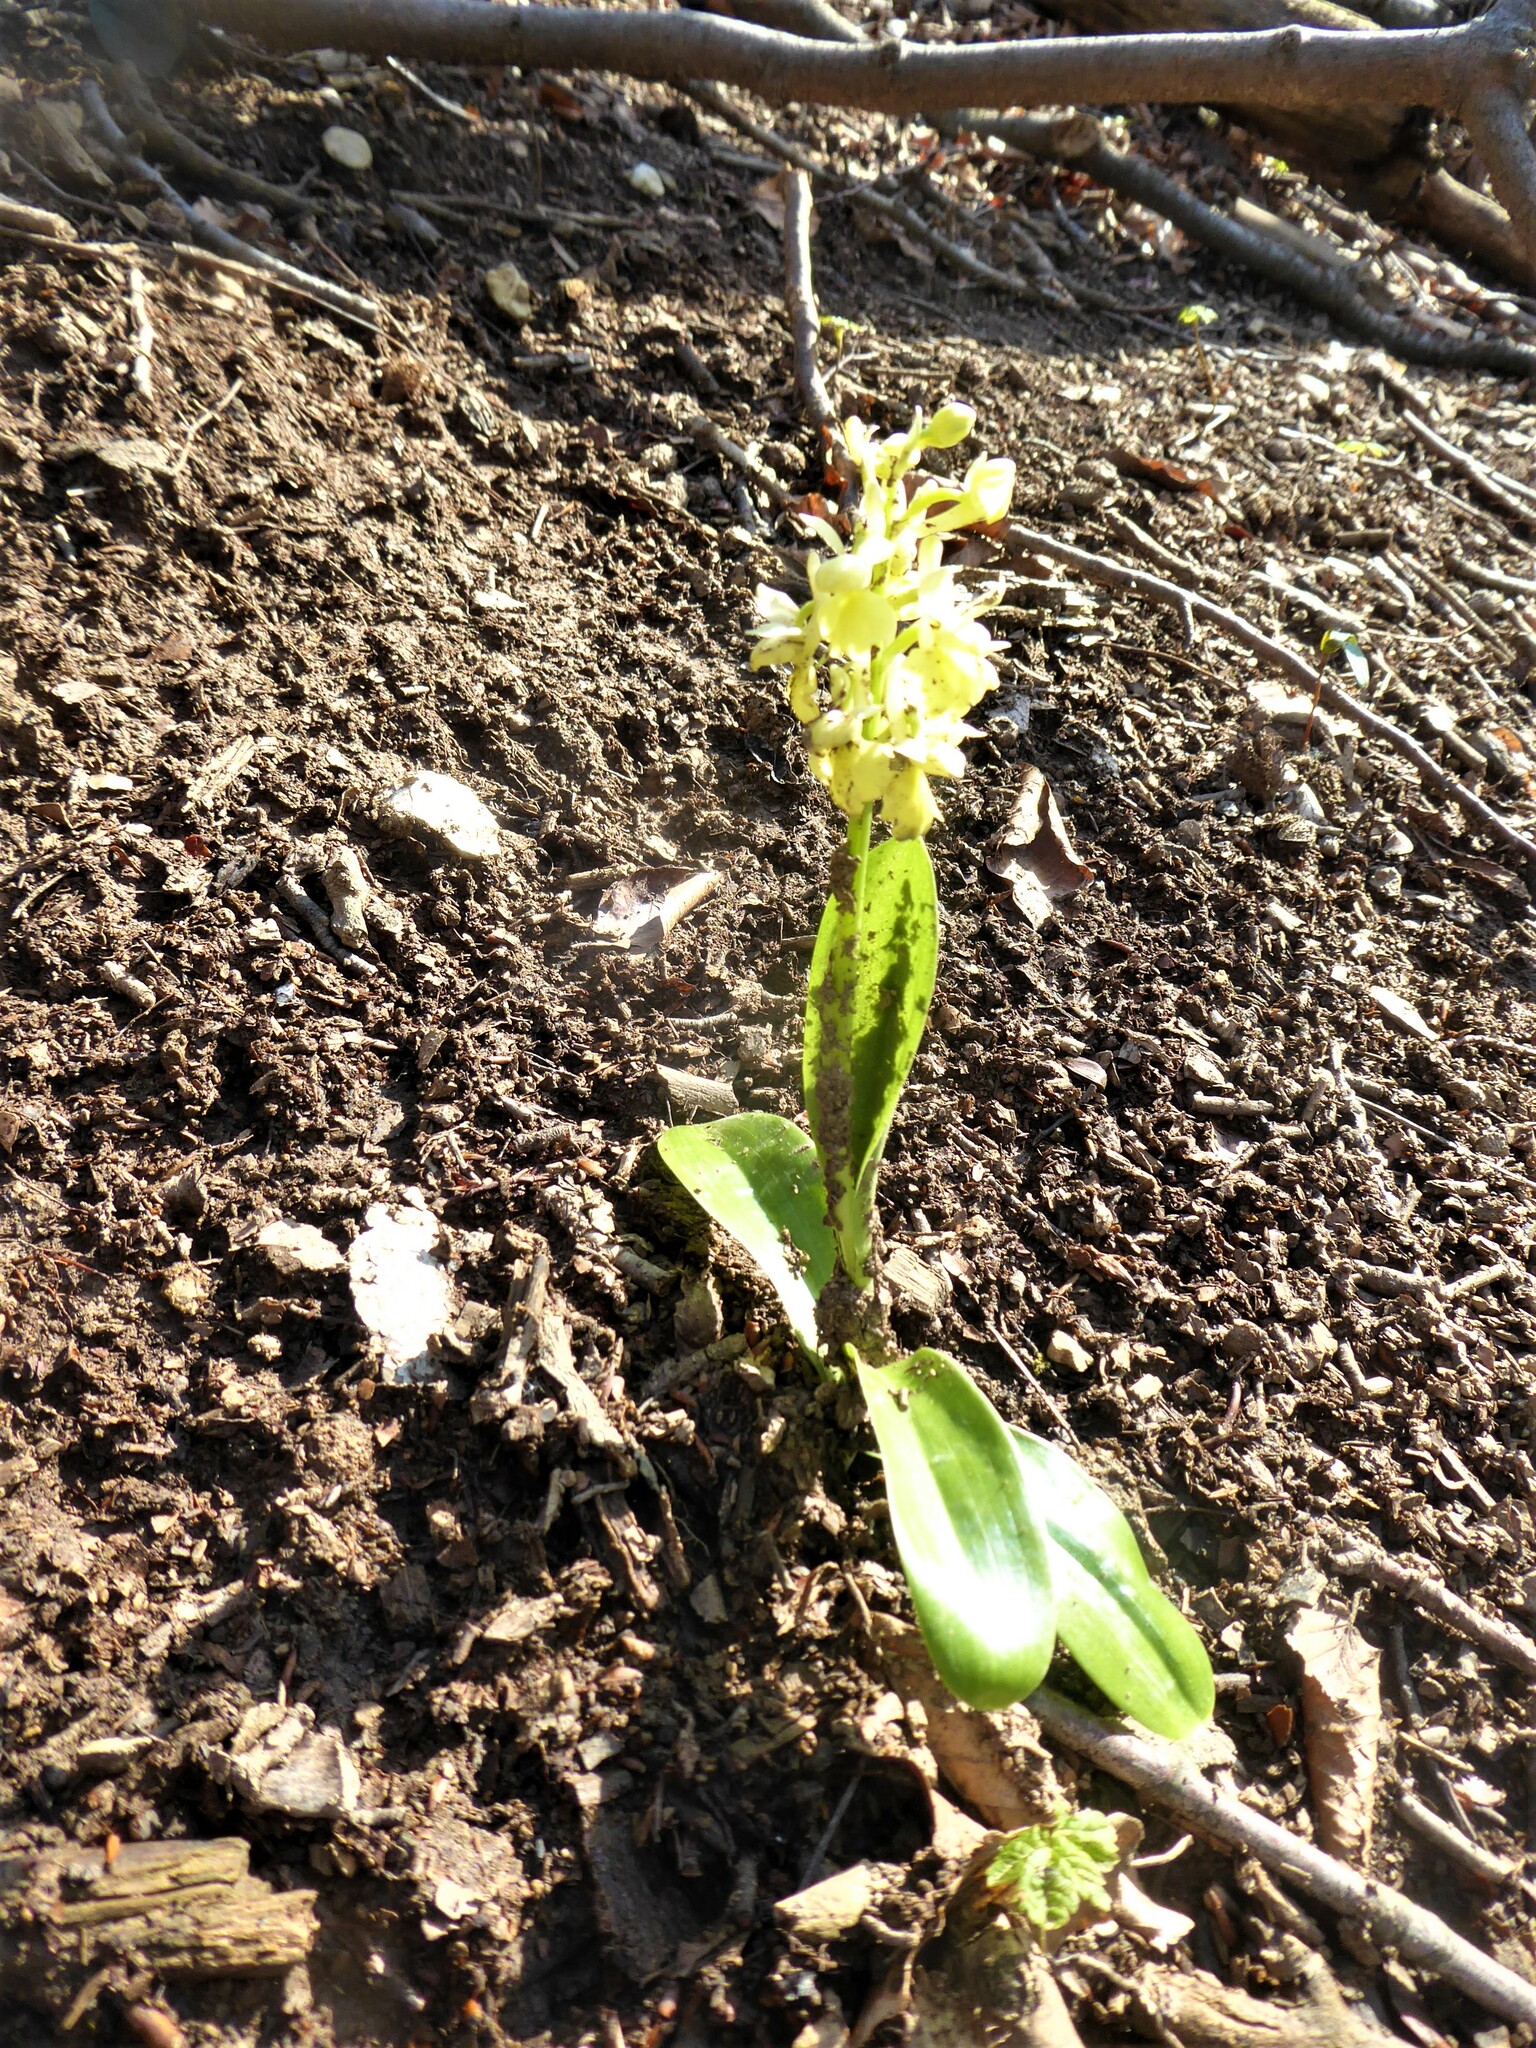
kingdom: Plantae
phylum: Tracheophyta
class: Liliopsida
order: Asparagales
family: Orchidaceae
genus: Orchis
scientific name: Orchis pallens
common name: Pale-flowered orchid
